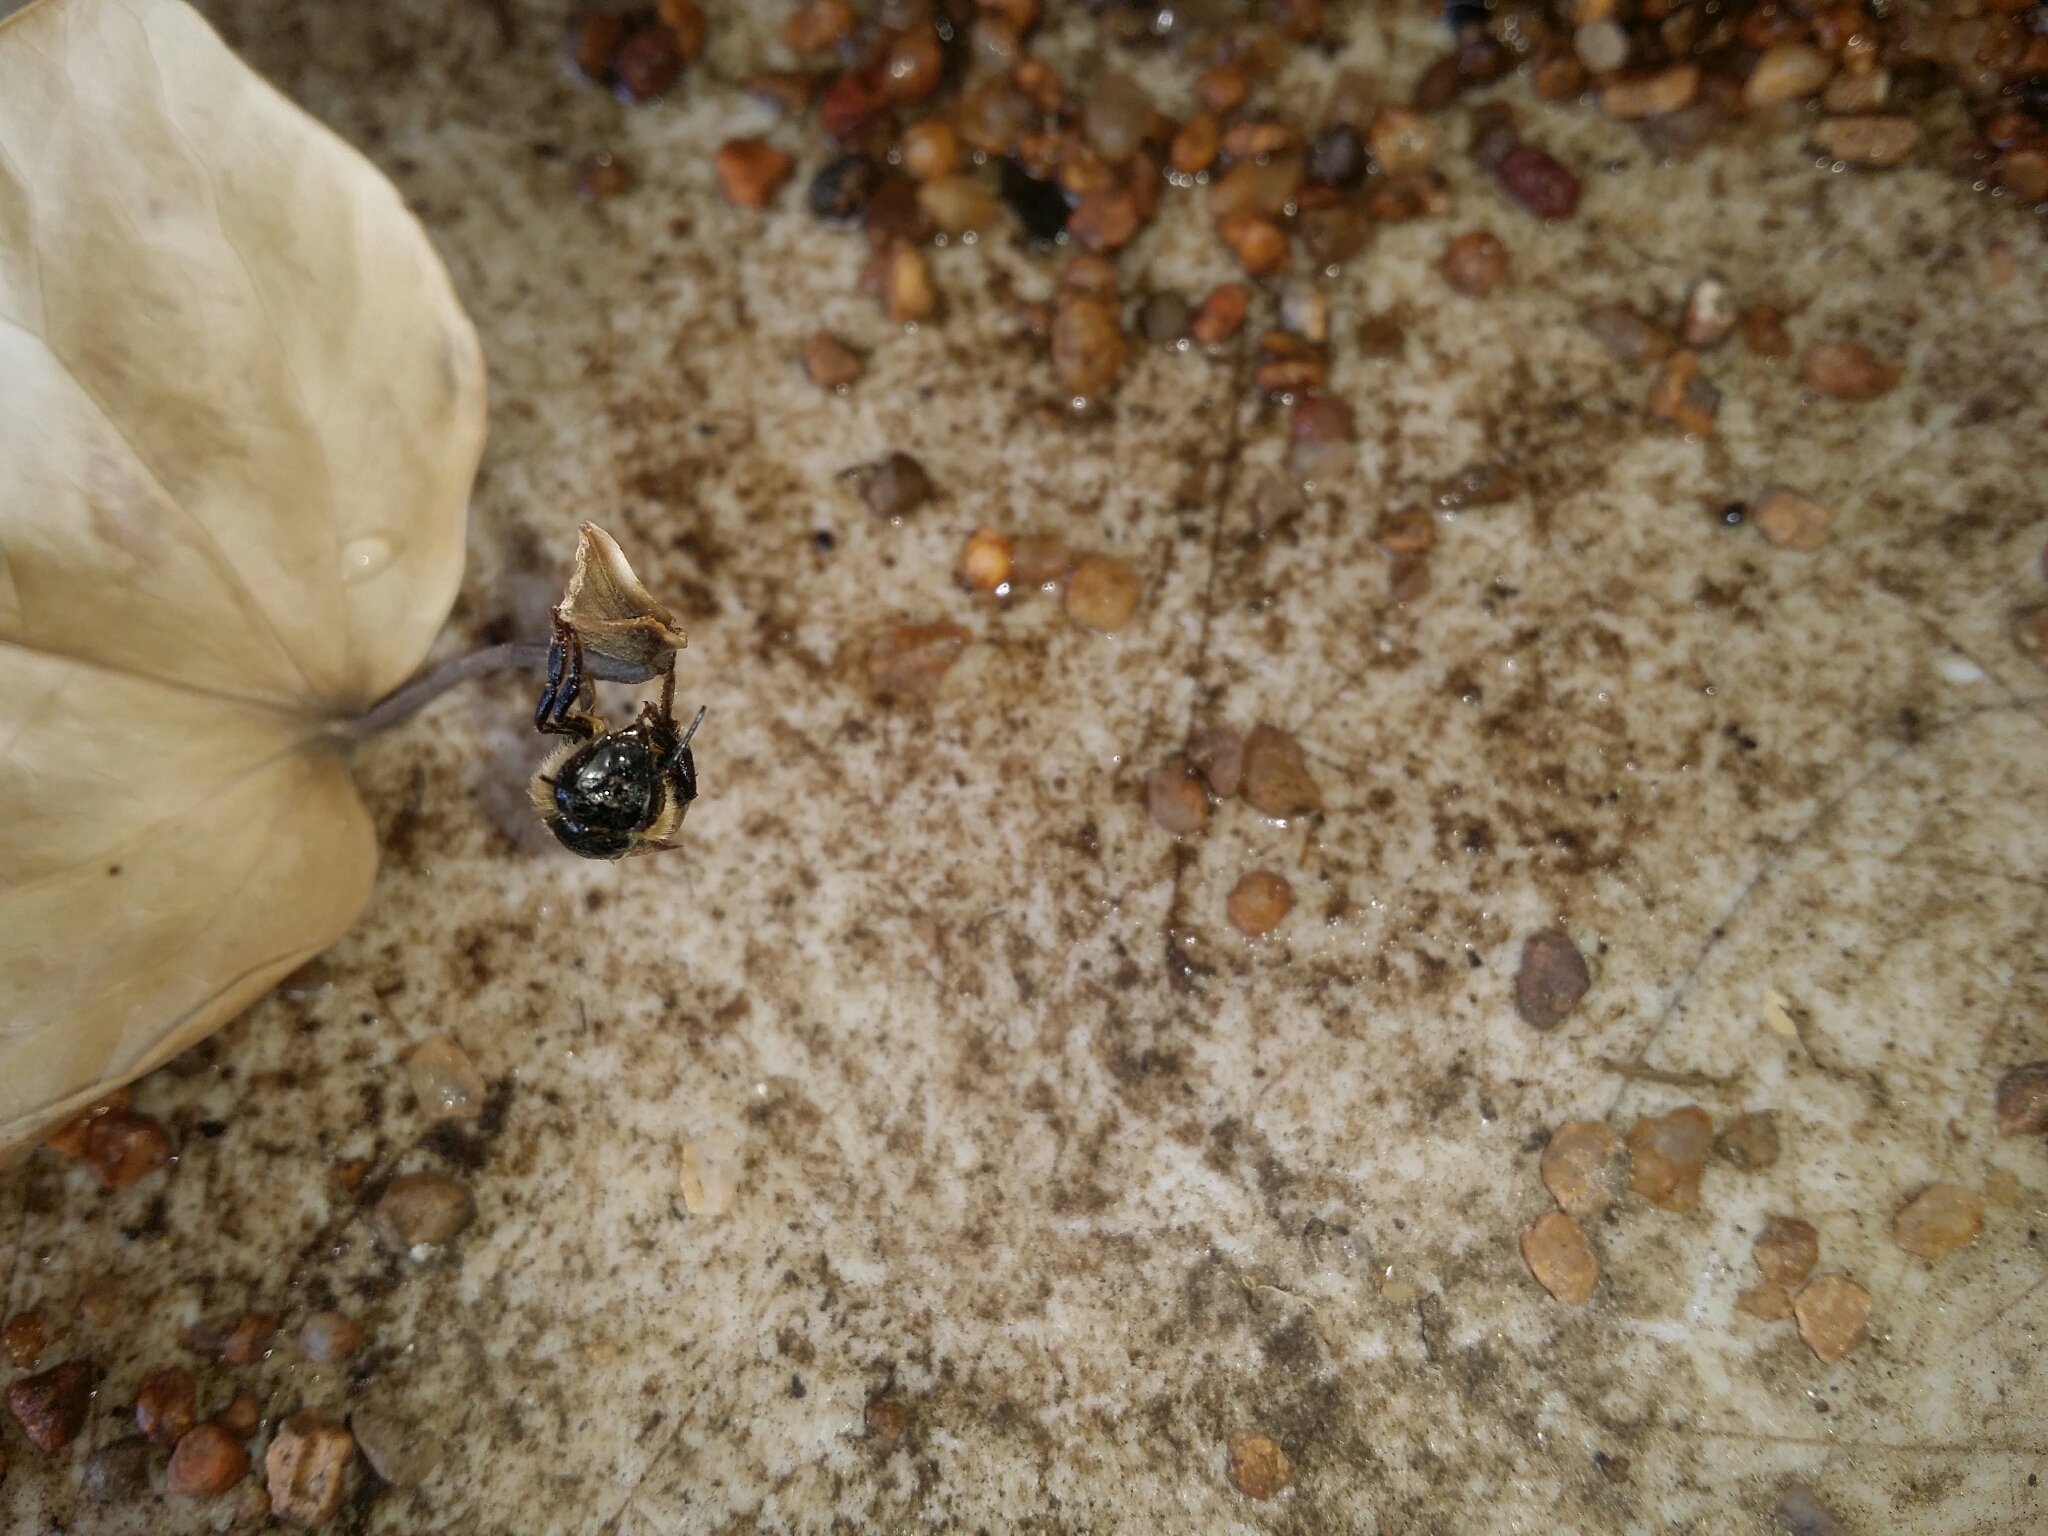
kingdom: Animalia
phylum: Arthropoda
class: Insecta
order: Hymenoptera
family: Apidae
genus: Apis
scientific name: Apis mellifera
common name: Honey bee
